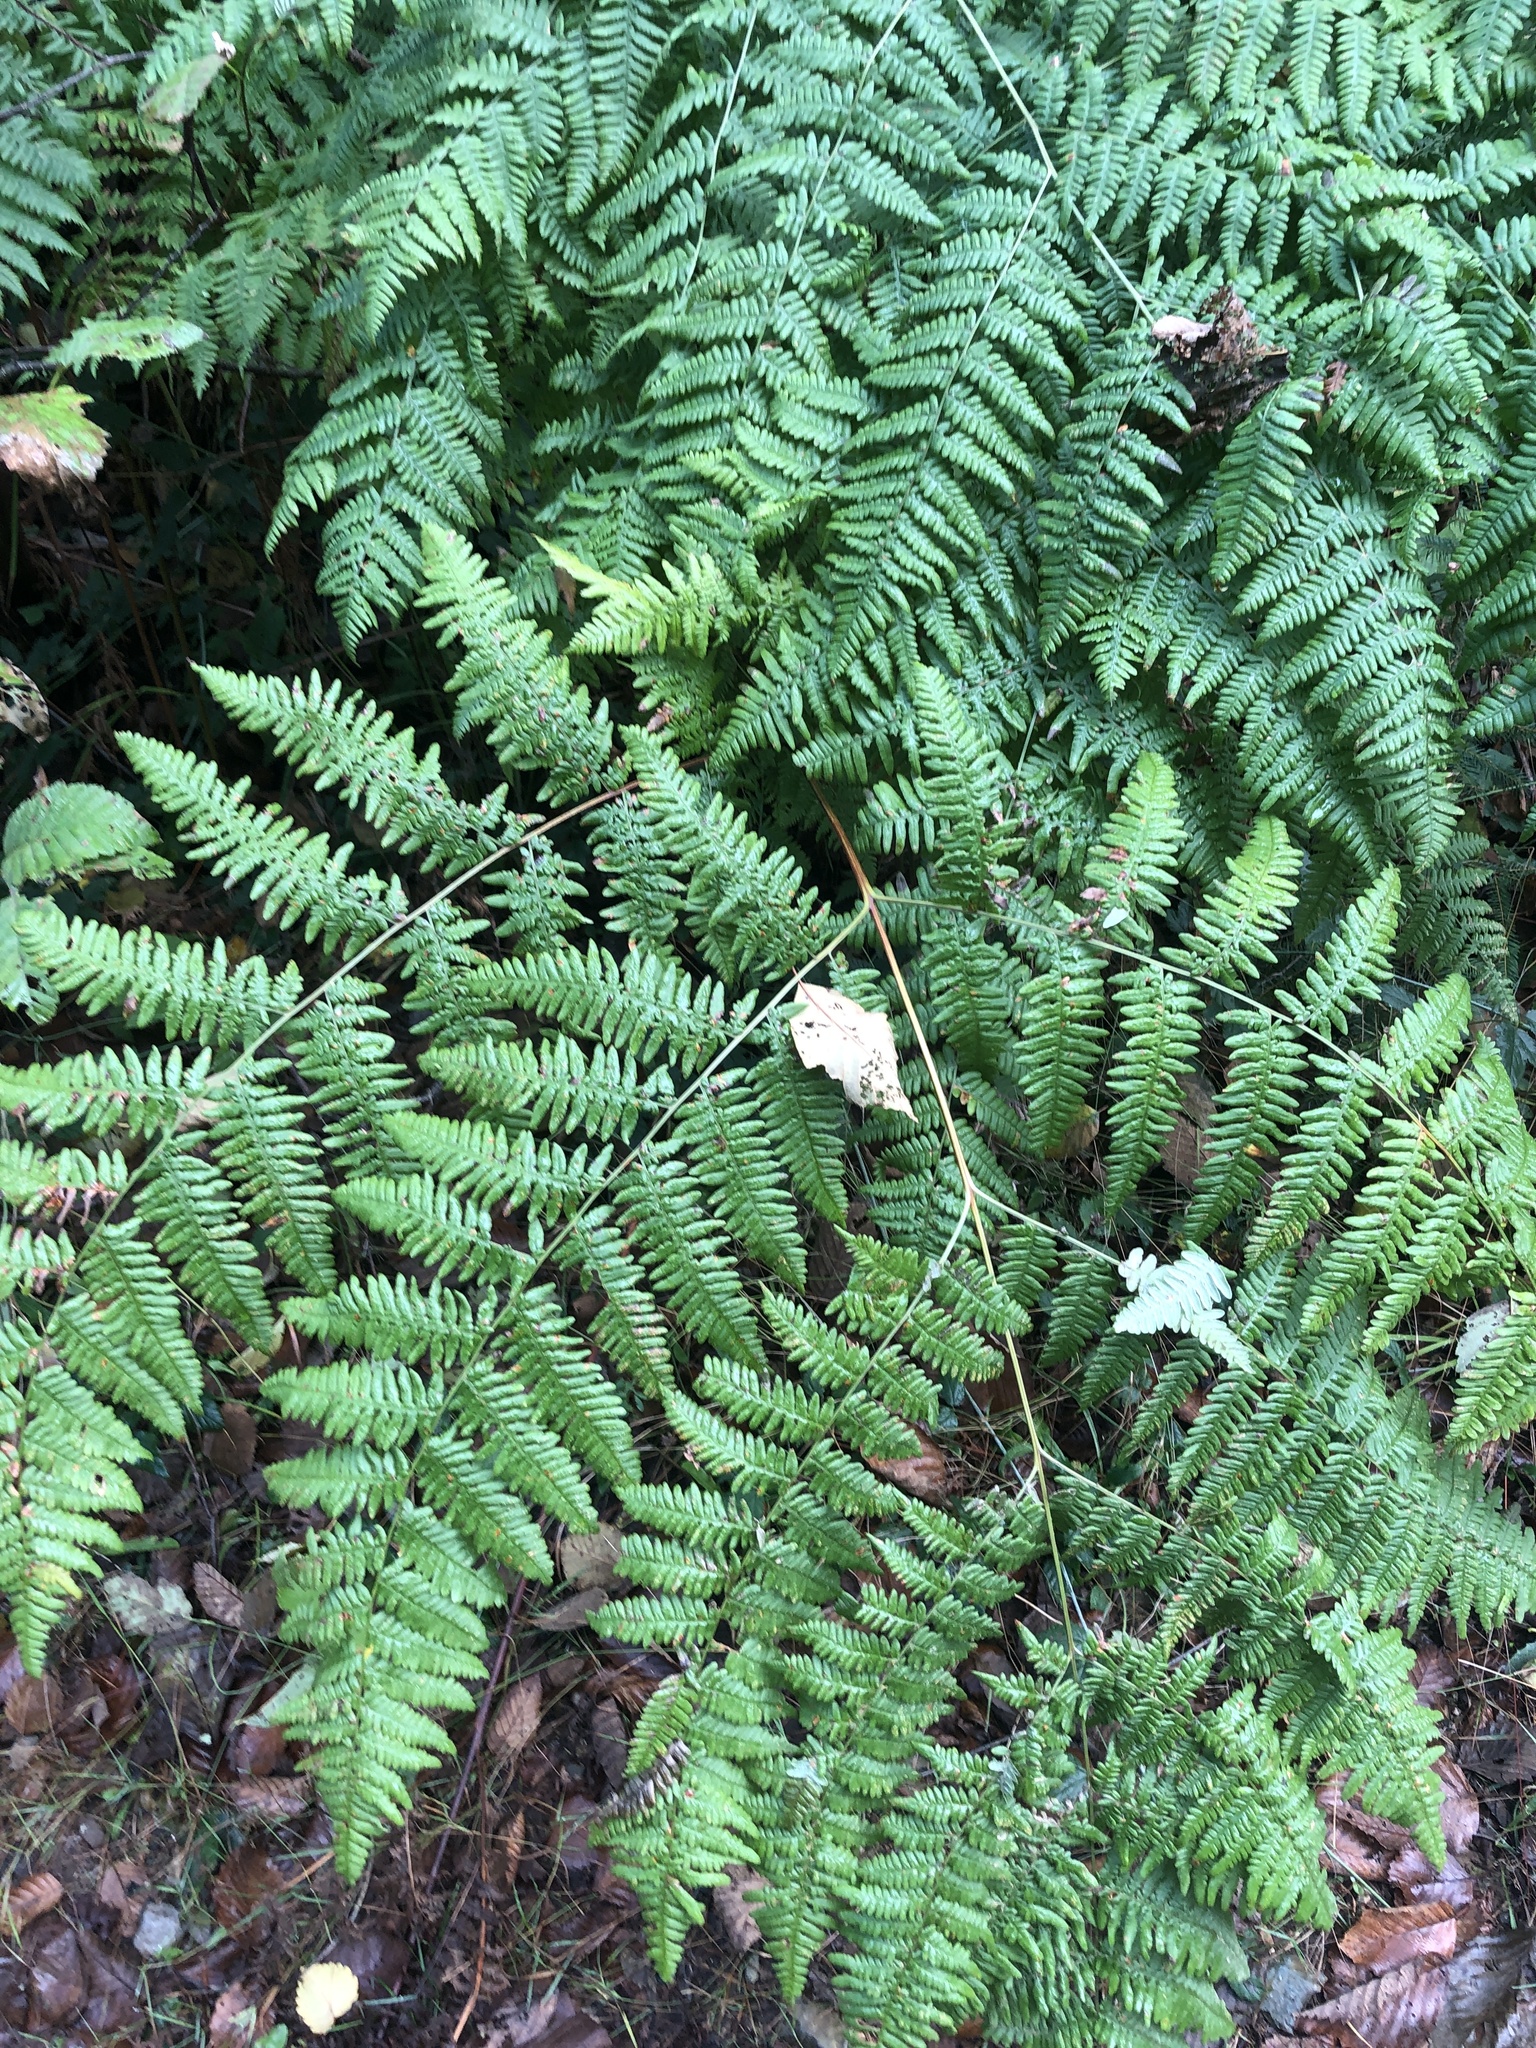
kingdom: Plantae
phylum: Tracheophyta
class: Polypodiopsida
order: Polypodiales
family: Dennstaedtiaceae
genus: Pteridium
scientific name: Pteridium aquilinum
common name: Bracken
